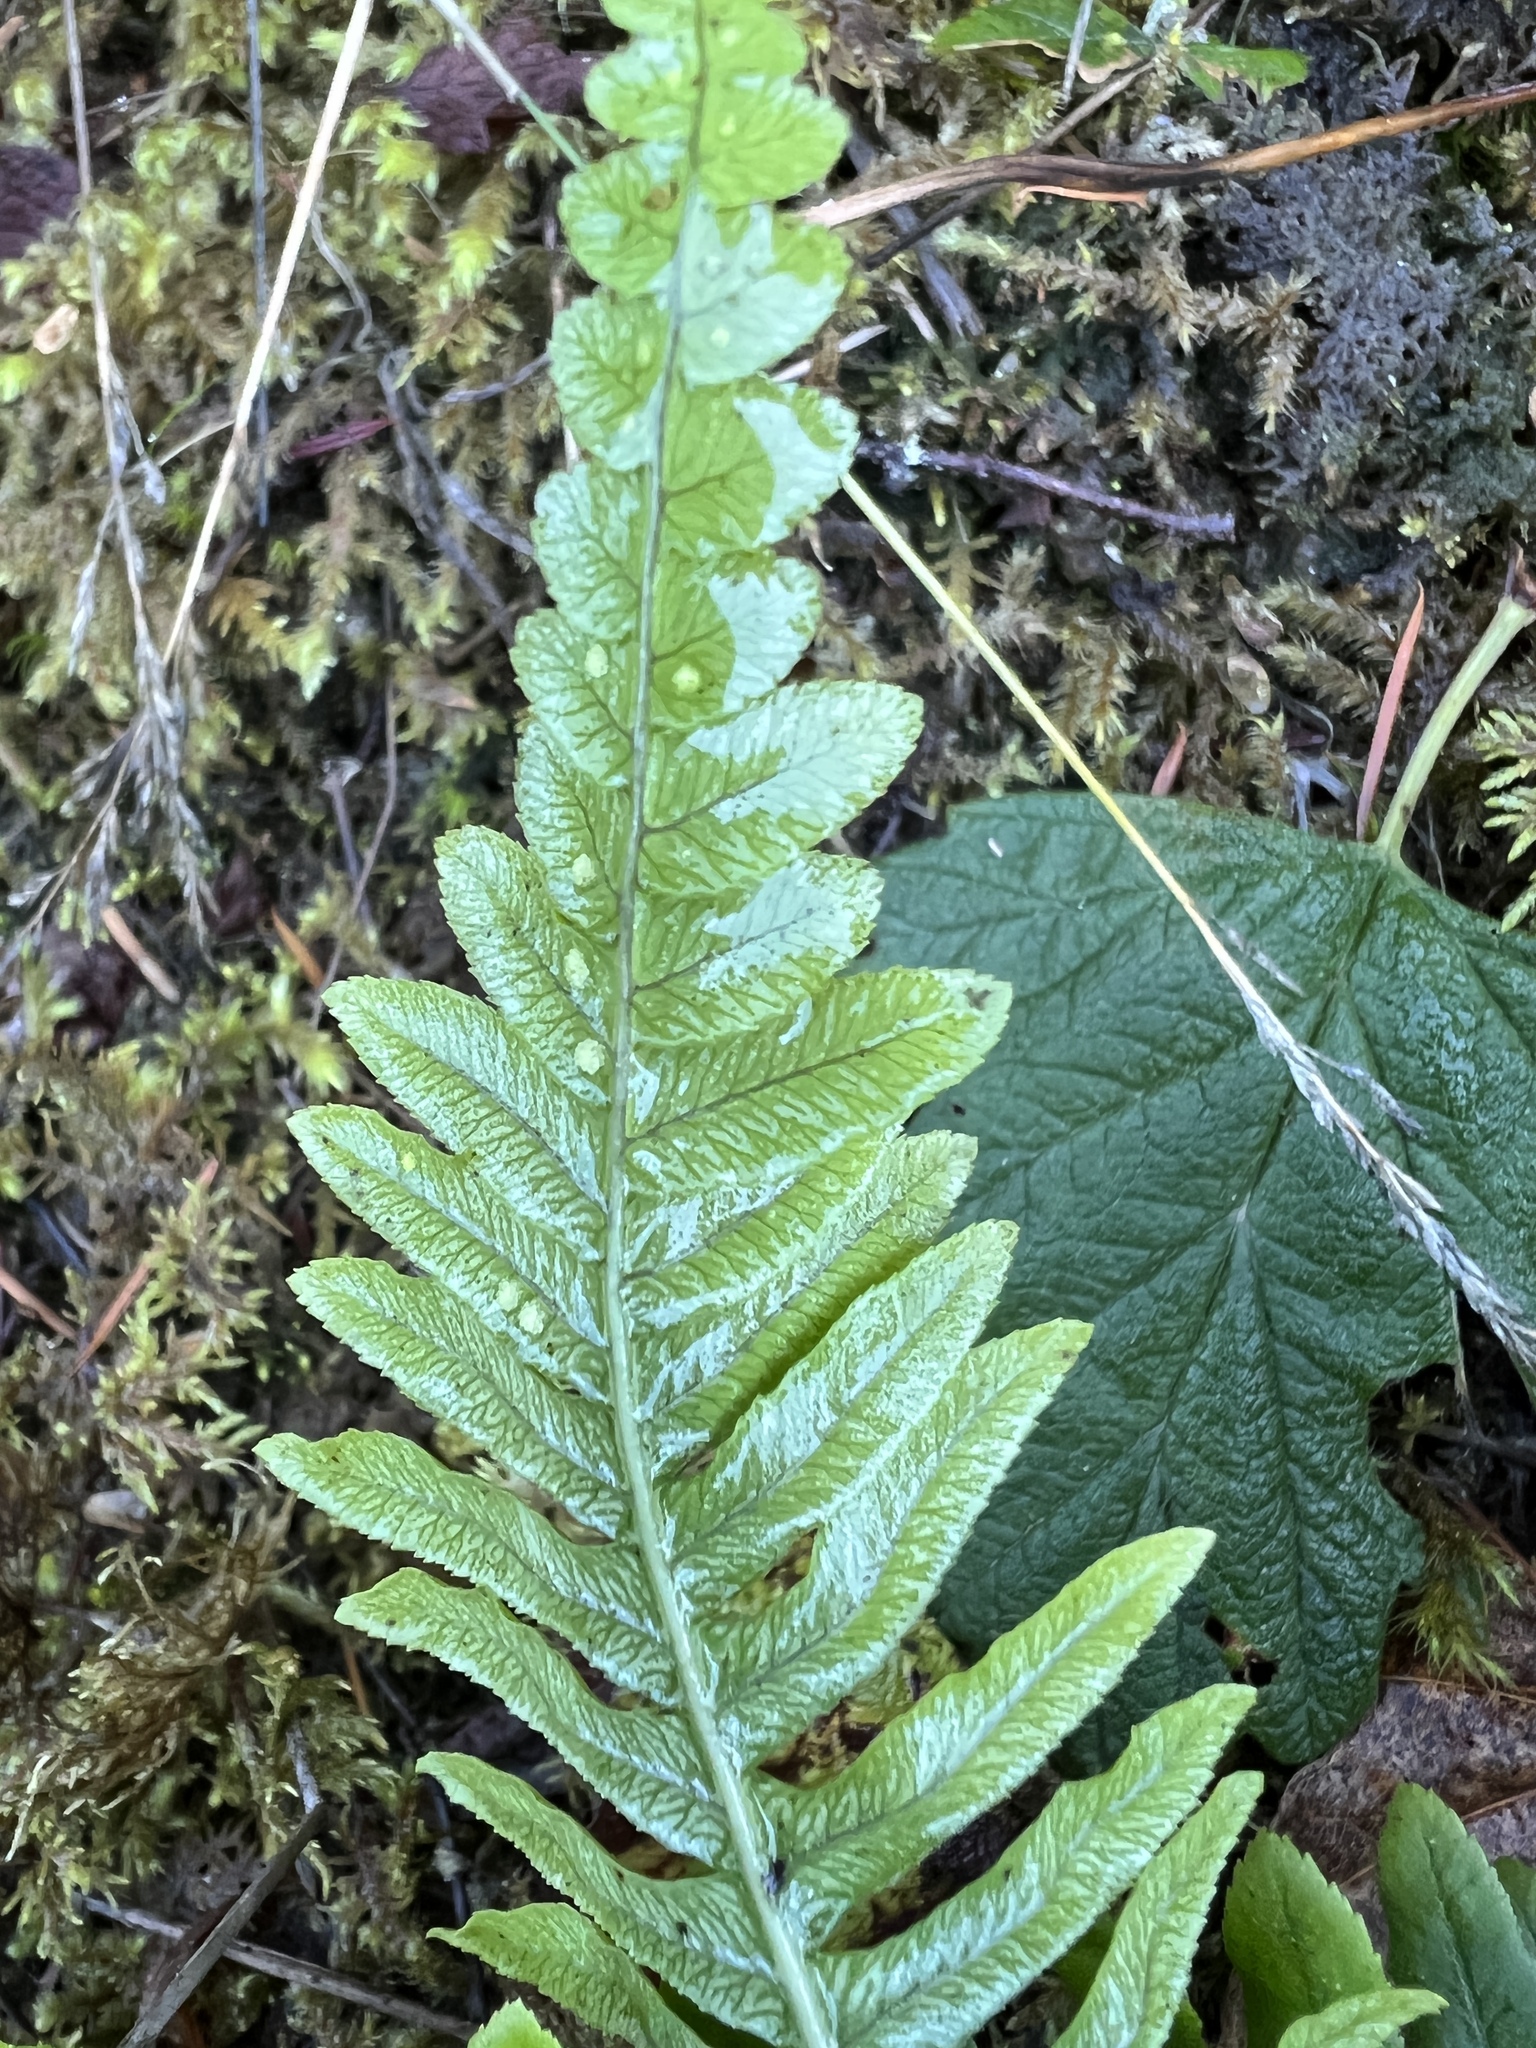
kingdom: Plantae
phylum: Tracheophyta
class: Polypodiopsida
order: Polypodiales
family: Polypodiaceae
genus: Polypodium
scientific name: Polypodium glycyrrhiza
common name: Licorice fern
